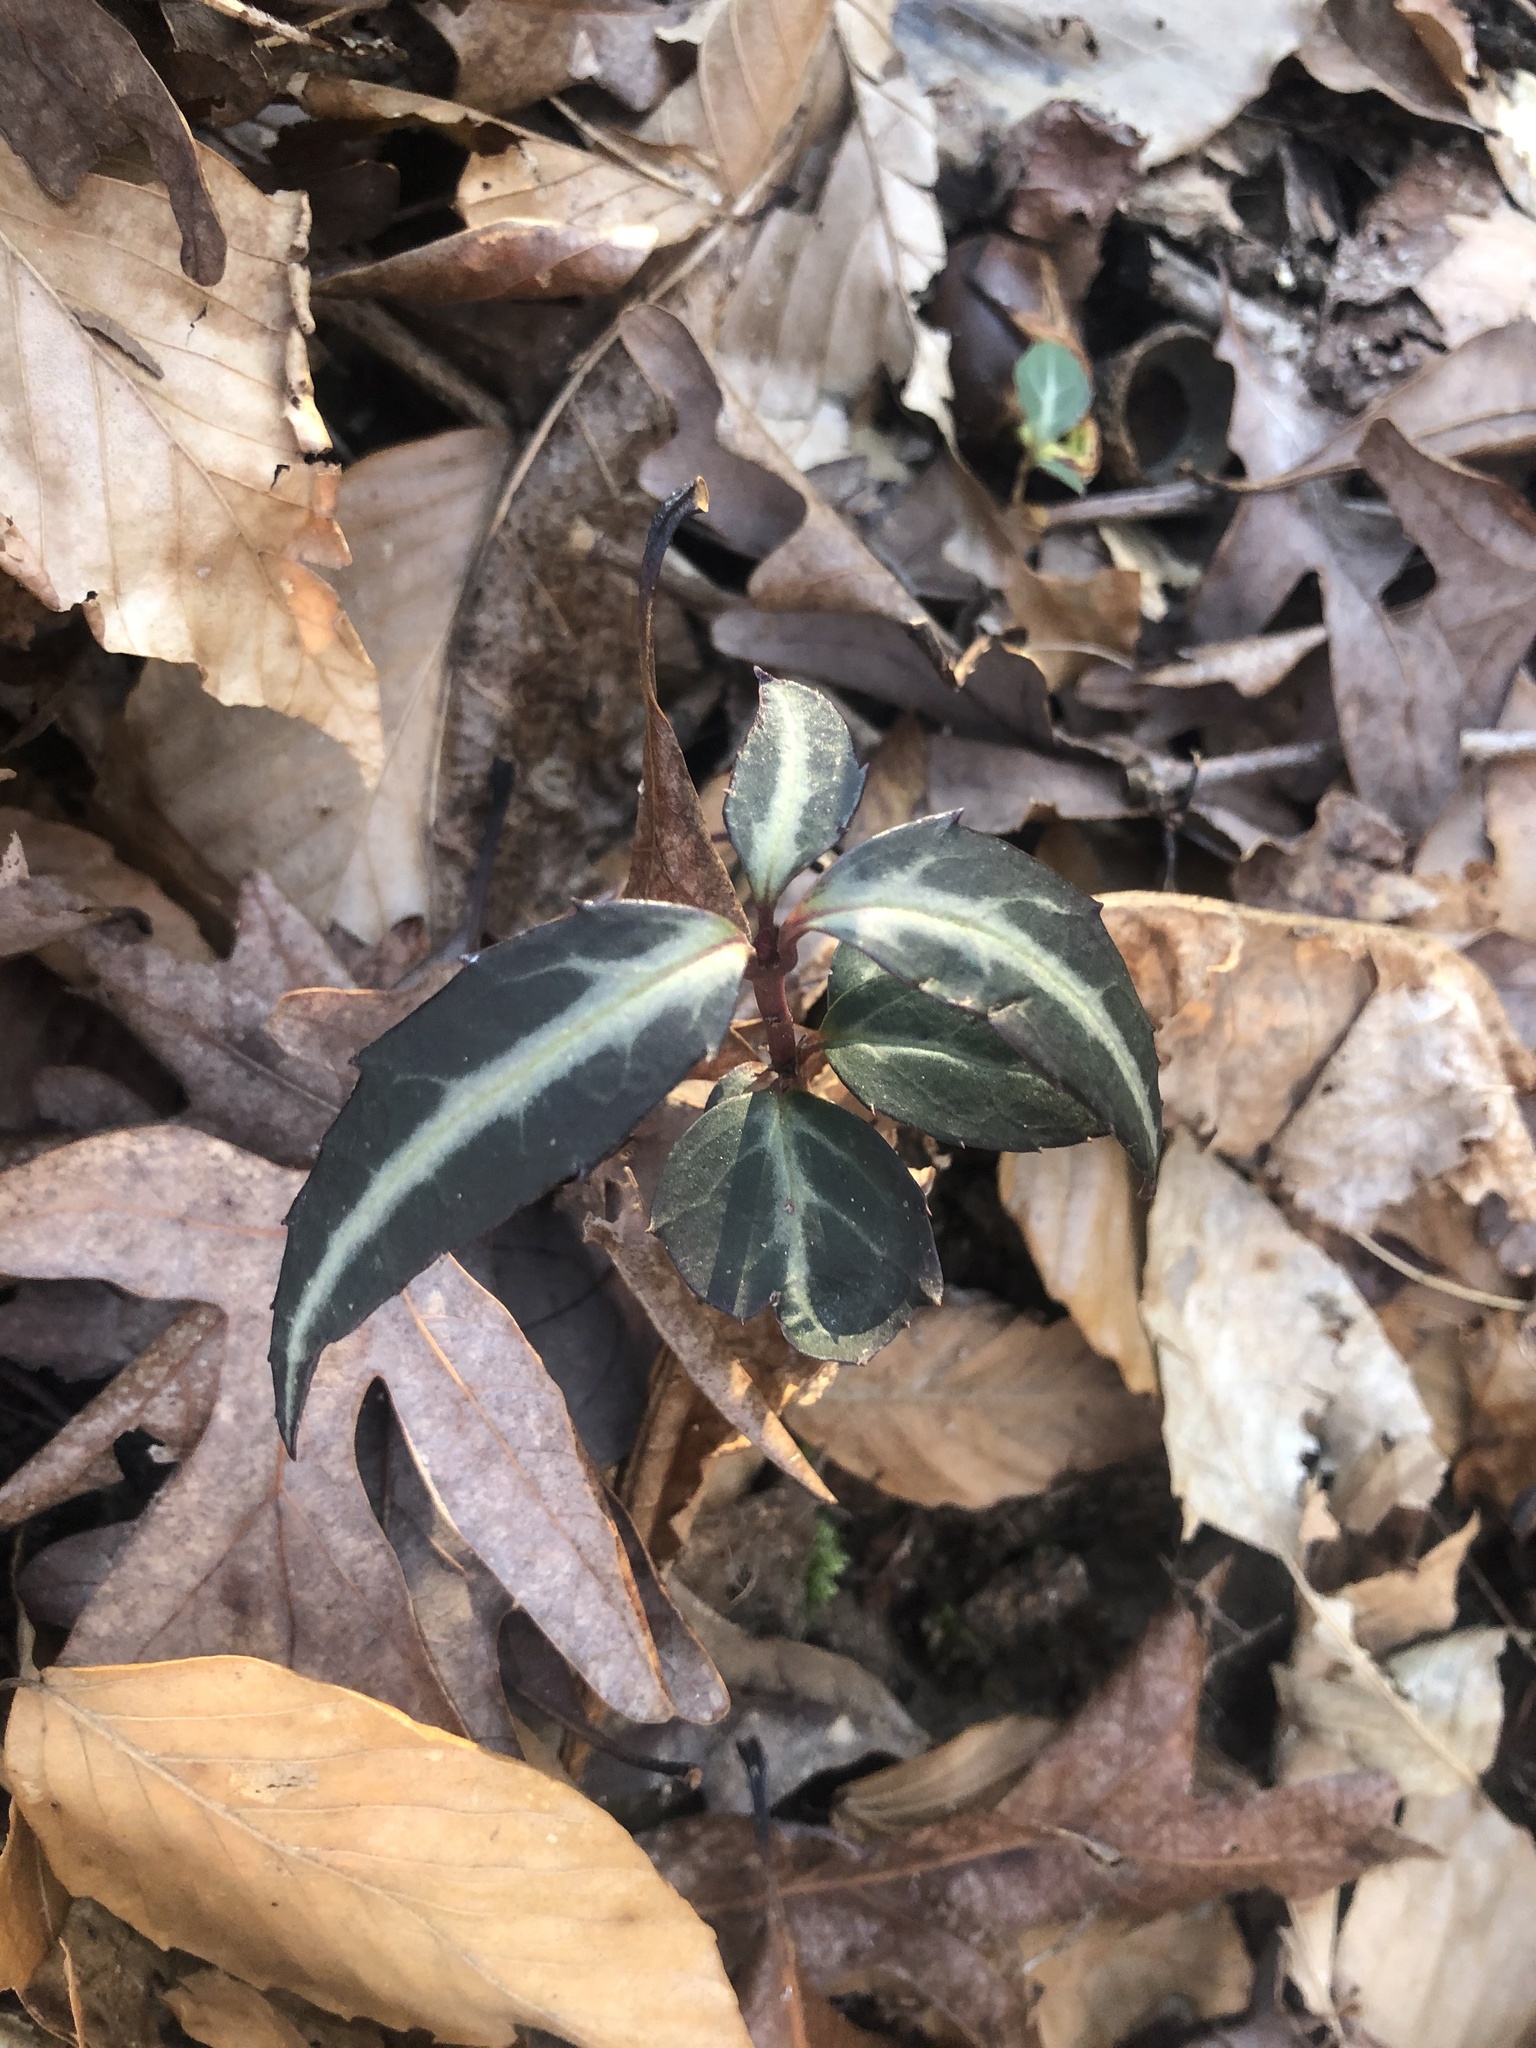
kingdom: Plantae
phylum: Tracheophyta
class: Magnoliopsida
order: Ericales
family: Ericaceae
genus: Chimaphila
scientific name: Chimaphila maculata
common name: Spotted pipsissewa
